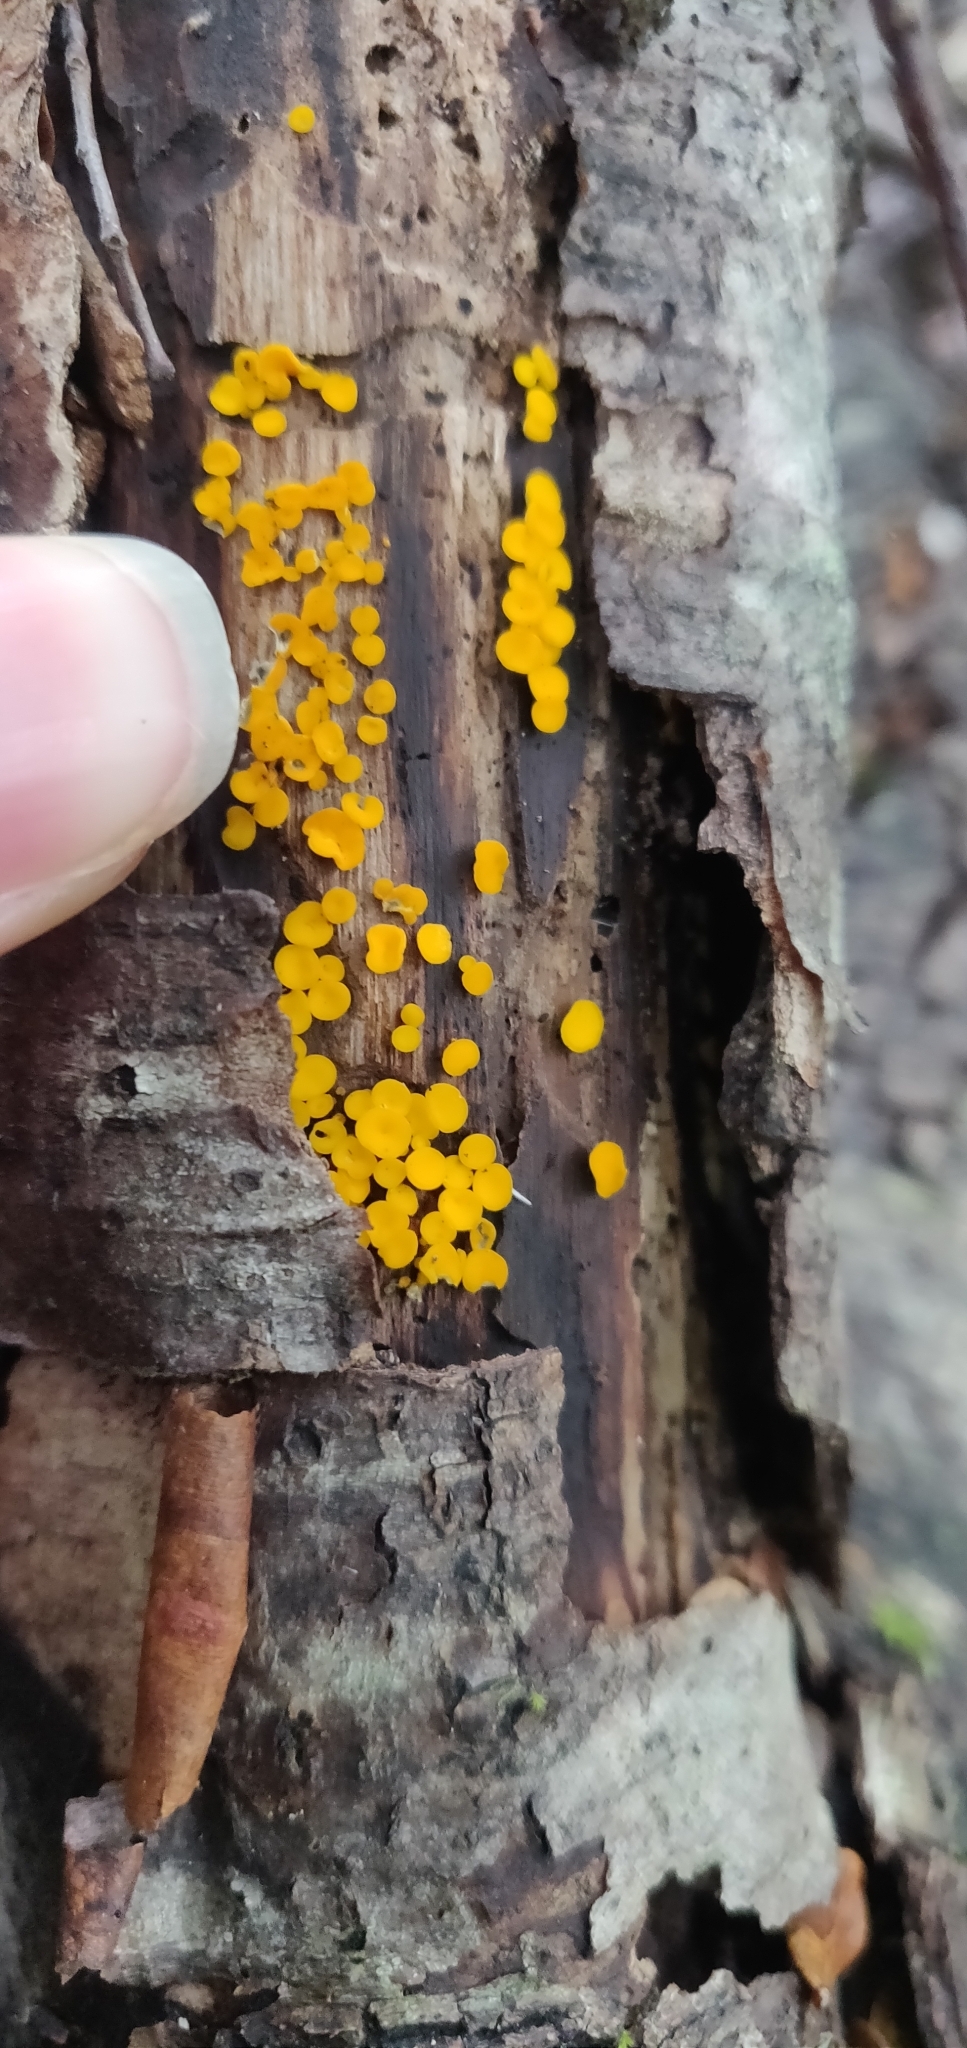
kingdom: Fungi
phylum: Ascomycota
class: Leotiomycetes
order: Helotiales
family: Pezizellaceae
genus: Calycina
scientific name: Calycina citrina
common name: Yellow fairy cups
